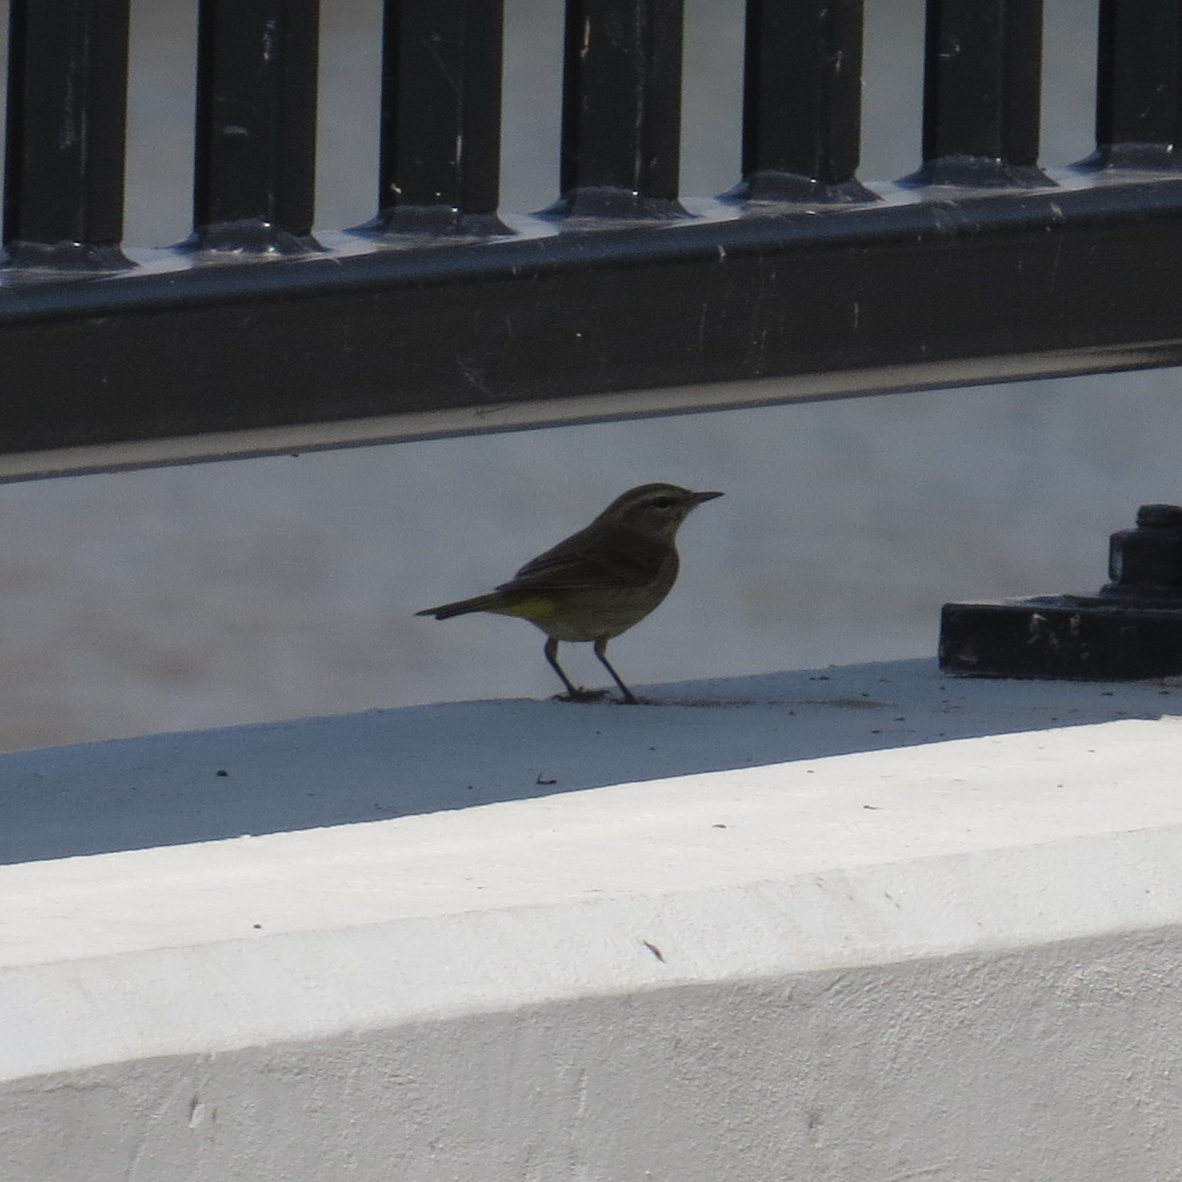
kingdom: Animalia
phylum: Chordata
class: Aves
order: Passeriformes
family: Parulidae
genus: Setophaga
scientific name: Setophaga palmarum
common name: Palm warbler
